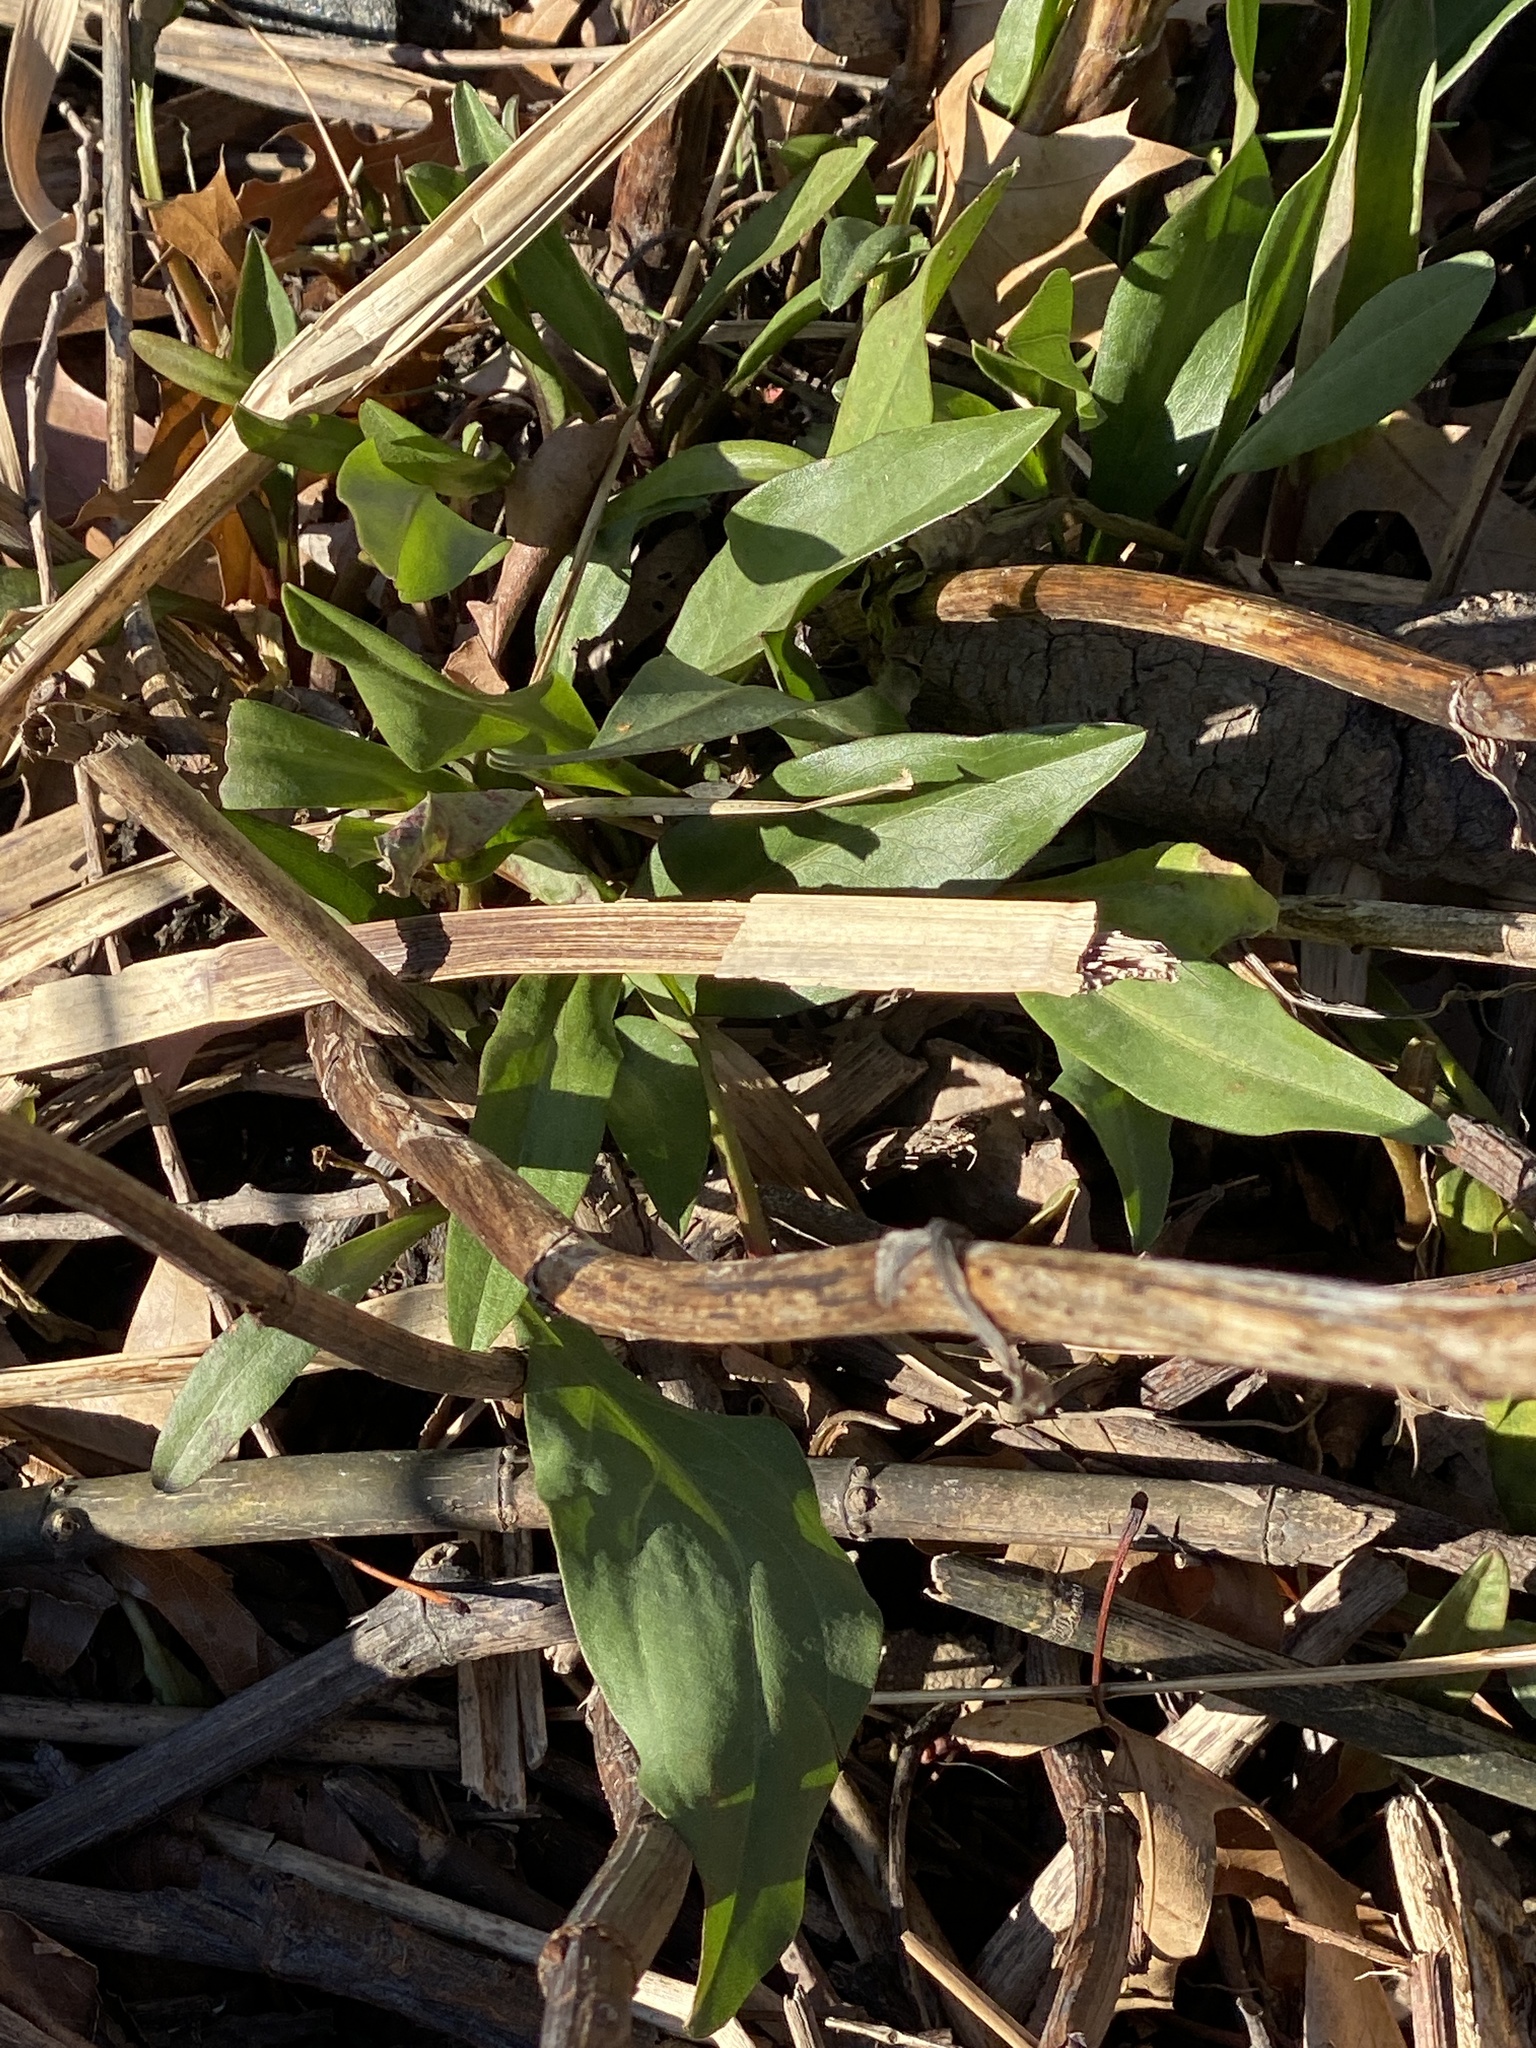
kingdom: Plantae
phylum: Tracheophyta
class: Magnoliopsida
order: Asterales
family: Asteraceae
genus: Solidago
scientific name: Solidago sempervirens
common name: Salt-marsh goldenrod
